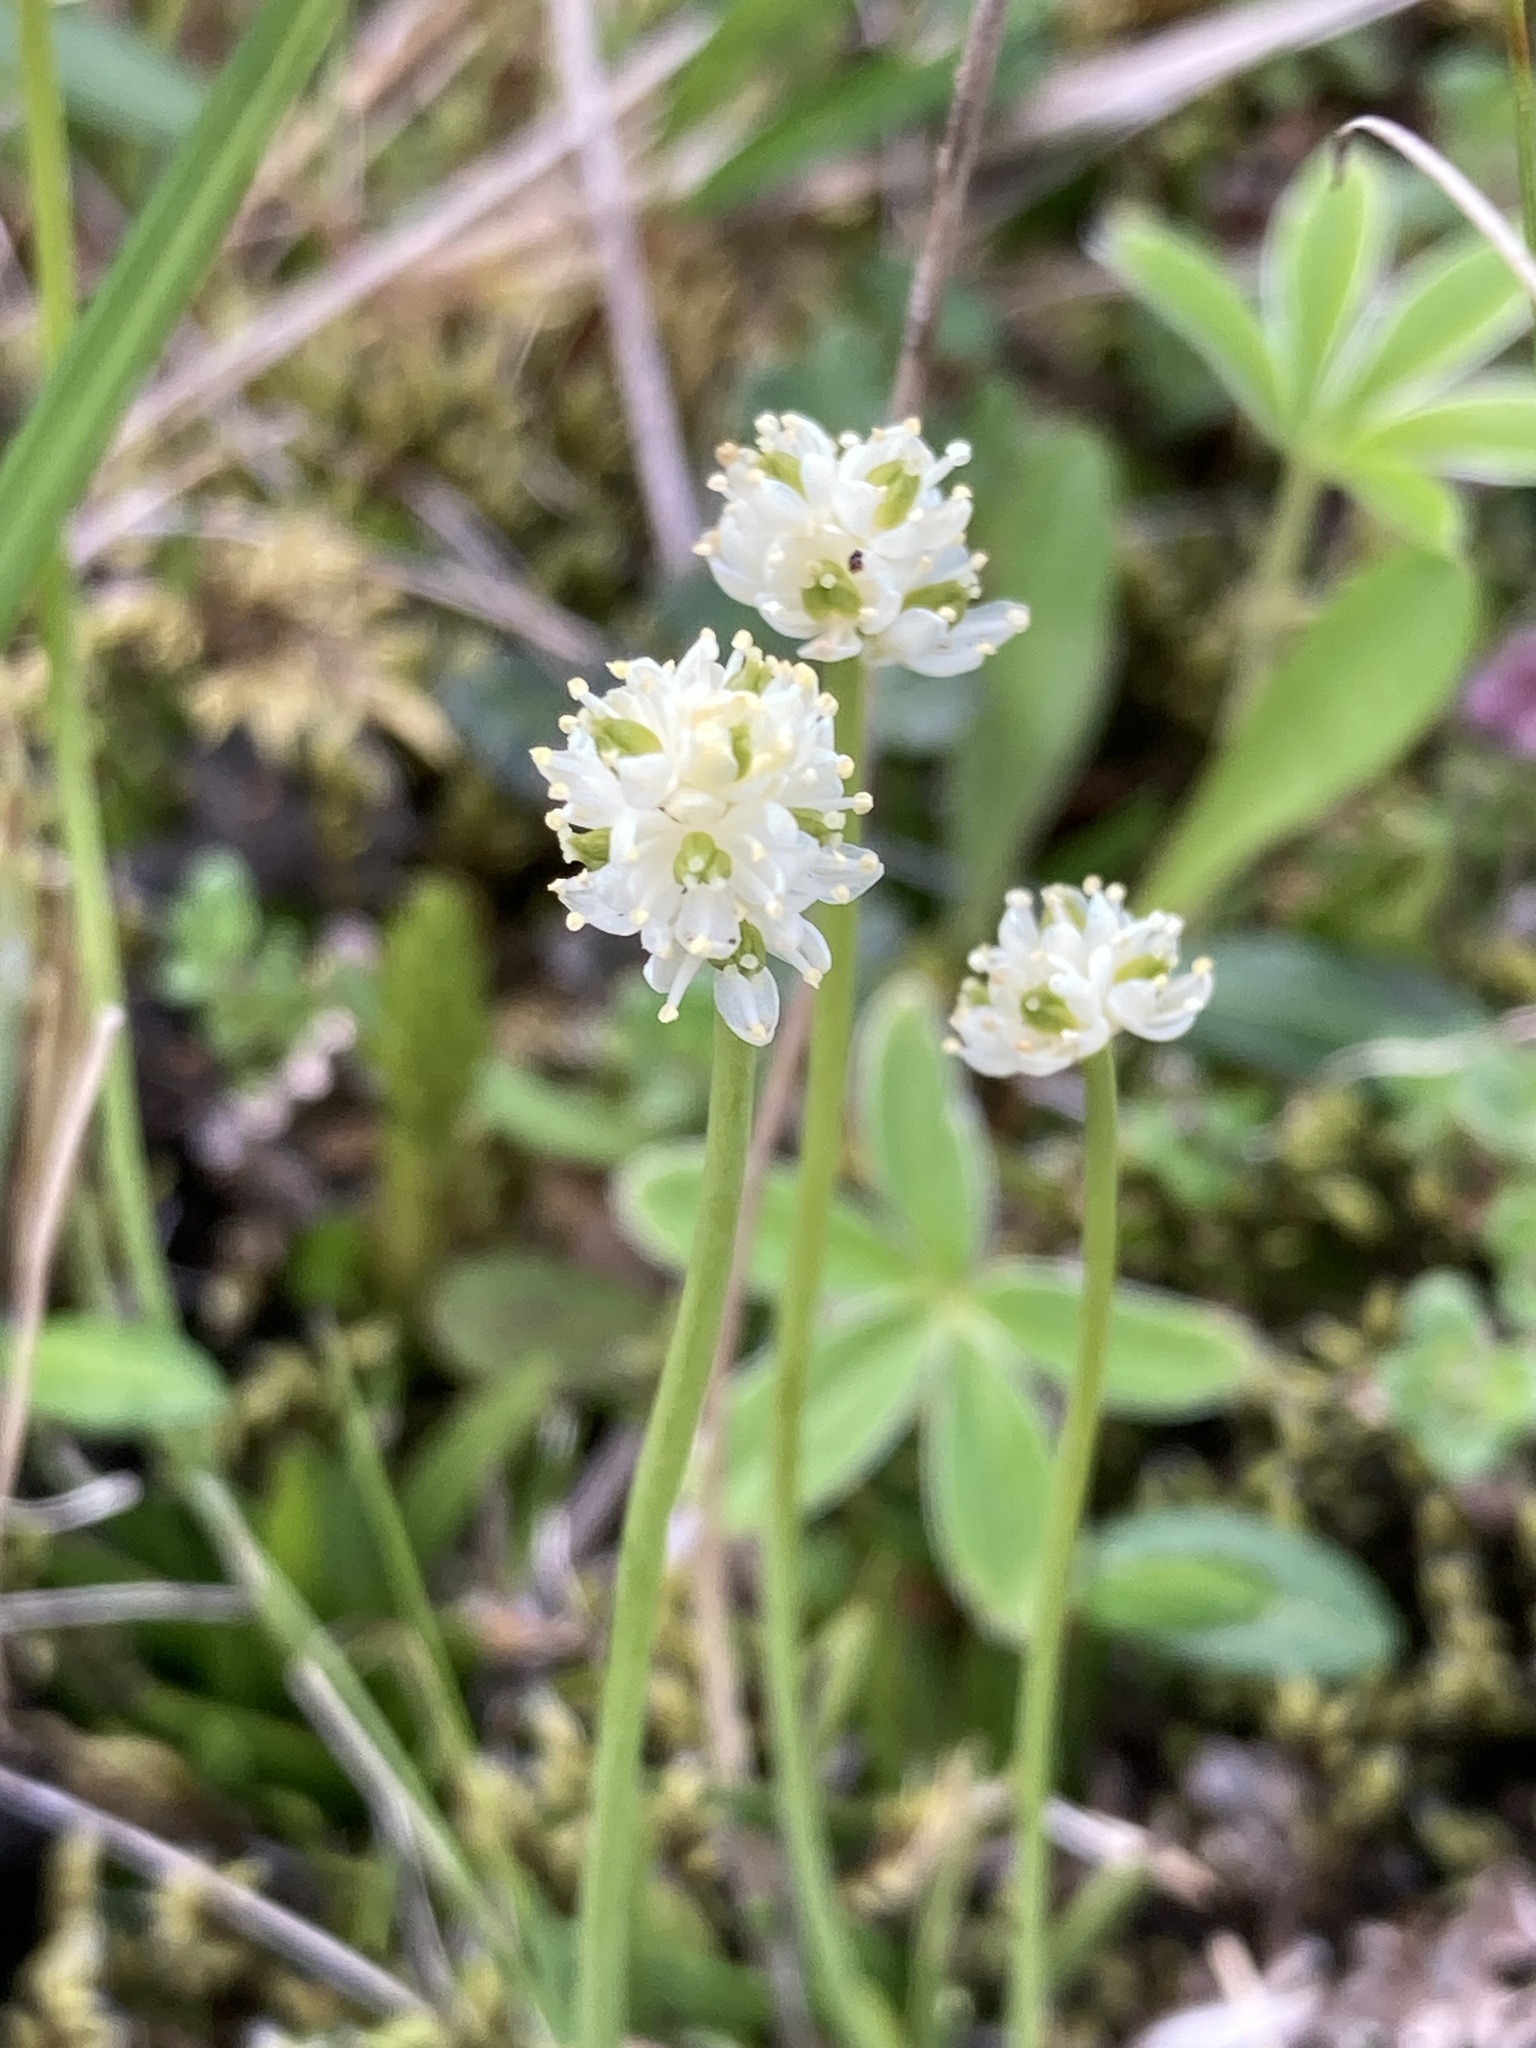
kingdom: Plantae
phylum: Tracheophyta
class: Liliopsida
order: Alismatales
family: Tofieldiaceae
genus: Tofieldia
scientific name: Tofieldia pusilla
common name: Scottish false asphodel
